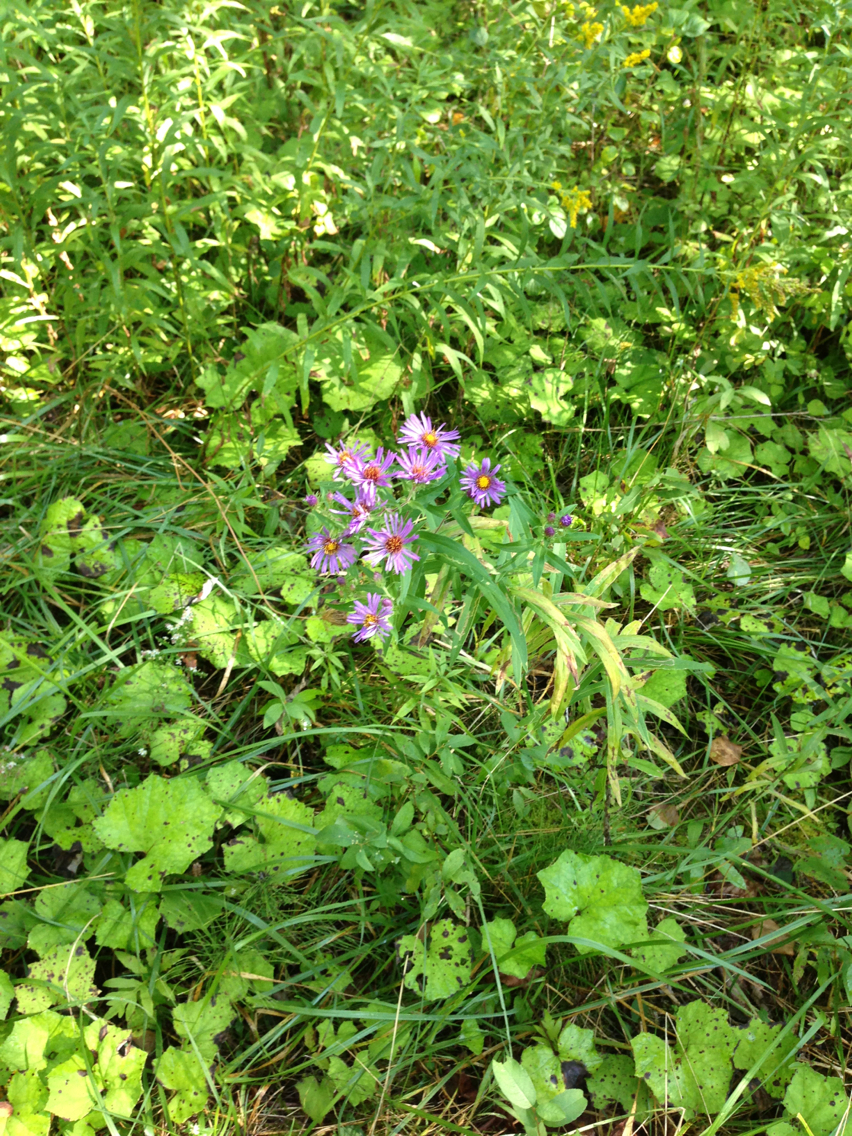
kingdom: Plantae
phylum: Tracheophyta
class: Magnoliopsida
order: Asterales
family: Asteraceae
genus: Symphyotrichum
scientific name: Symphyotrichum novae-angliae
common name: Michaelmas daisy
